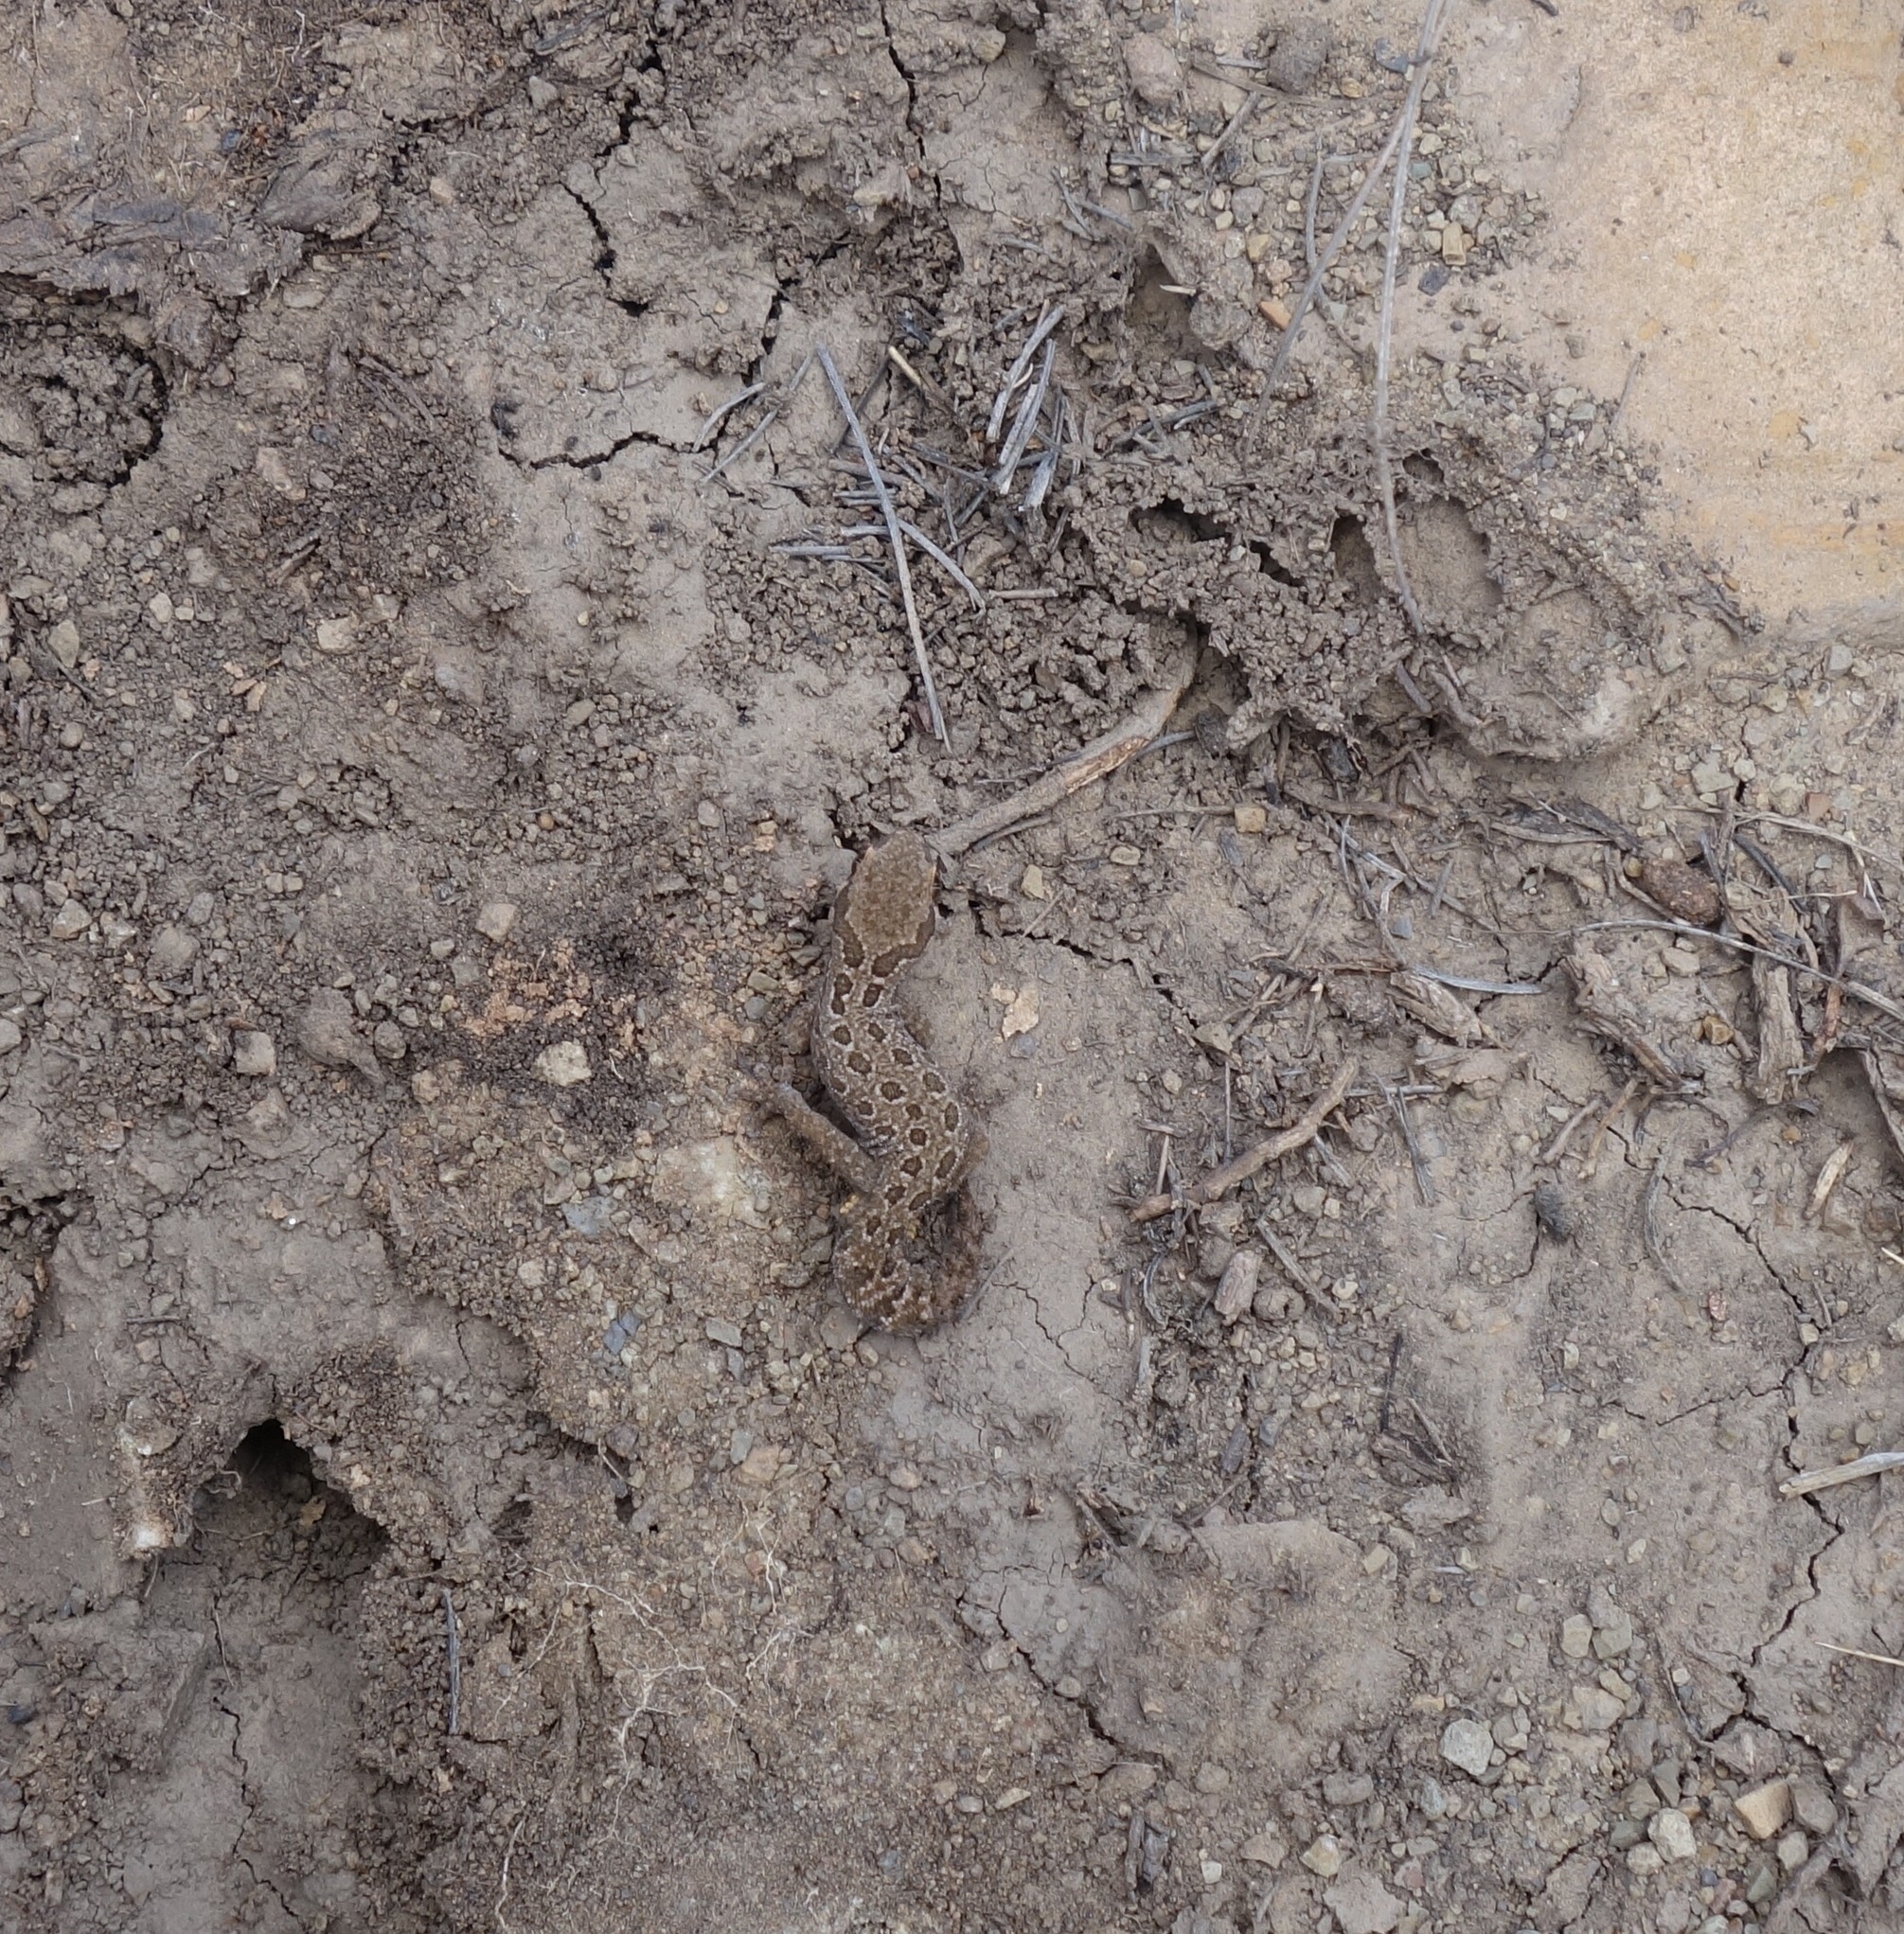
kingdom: Animalia
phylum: Chordata
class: Squamata
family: Gekkonidae
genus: Pachydactylus
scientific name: Pachydactylus maculatus
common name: Spotted thick-toed gecko
